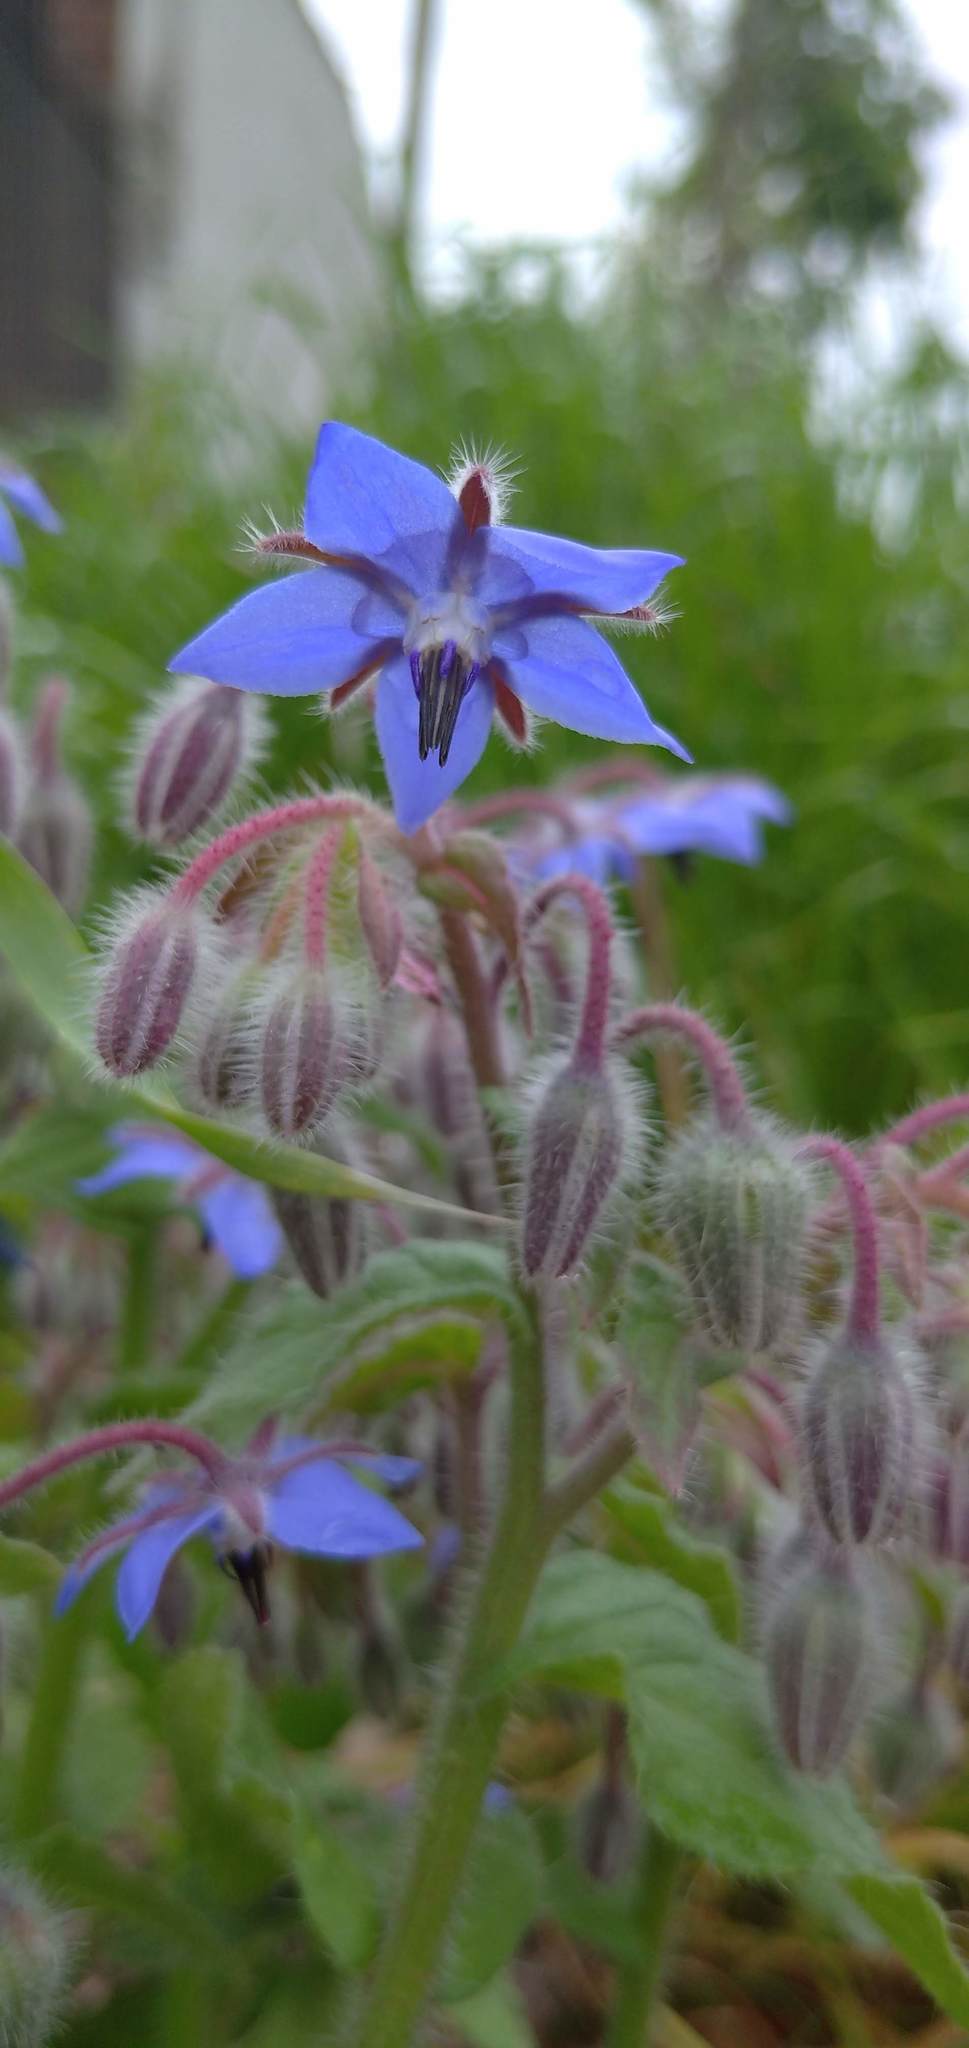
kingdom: Plantae
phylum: Tracheophyta
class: Magnoliopsida
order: Boraginales
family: Boraginaceae
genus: Borago
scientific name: Borago officinalis
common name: Borage
